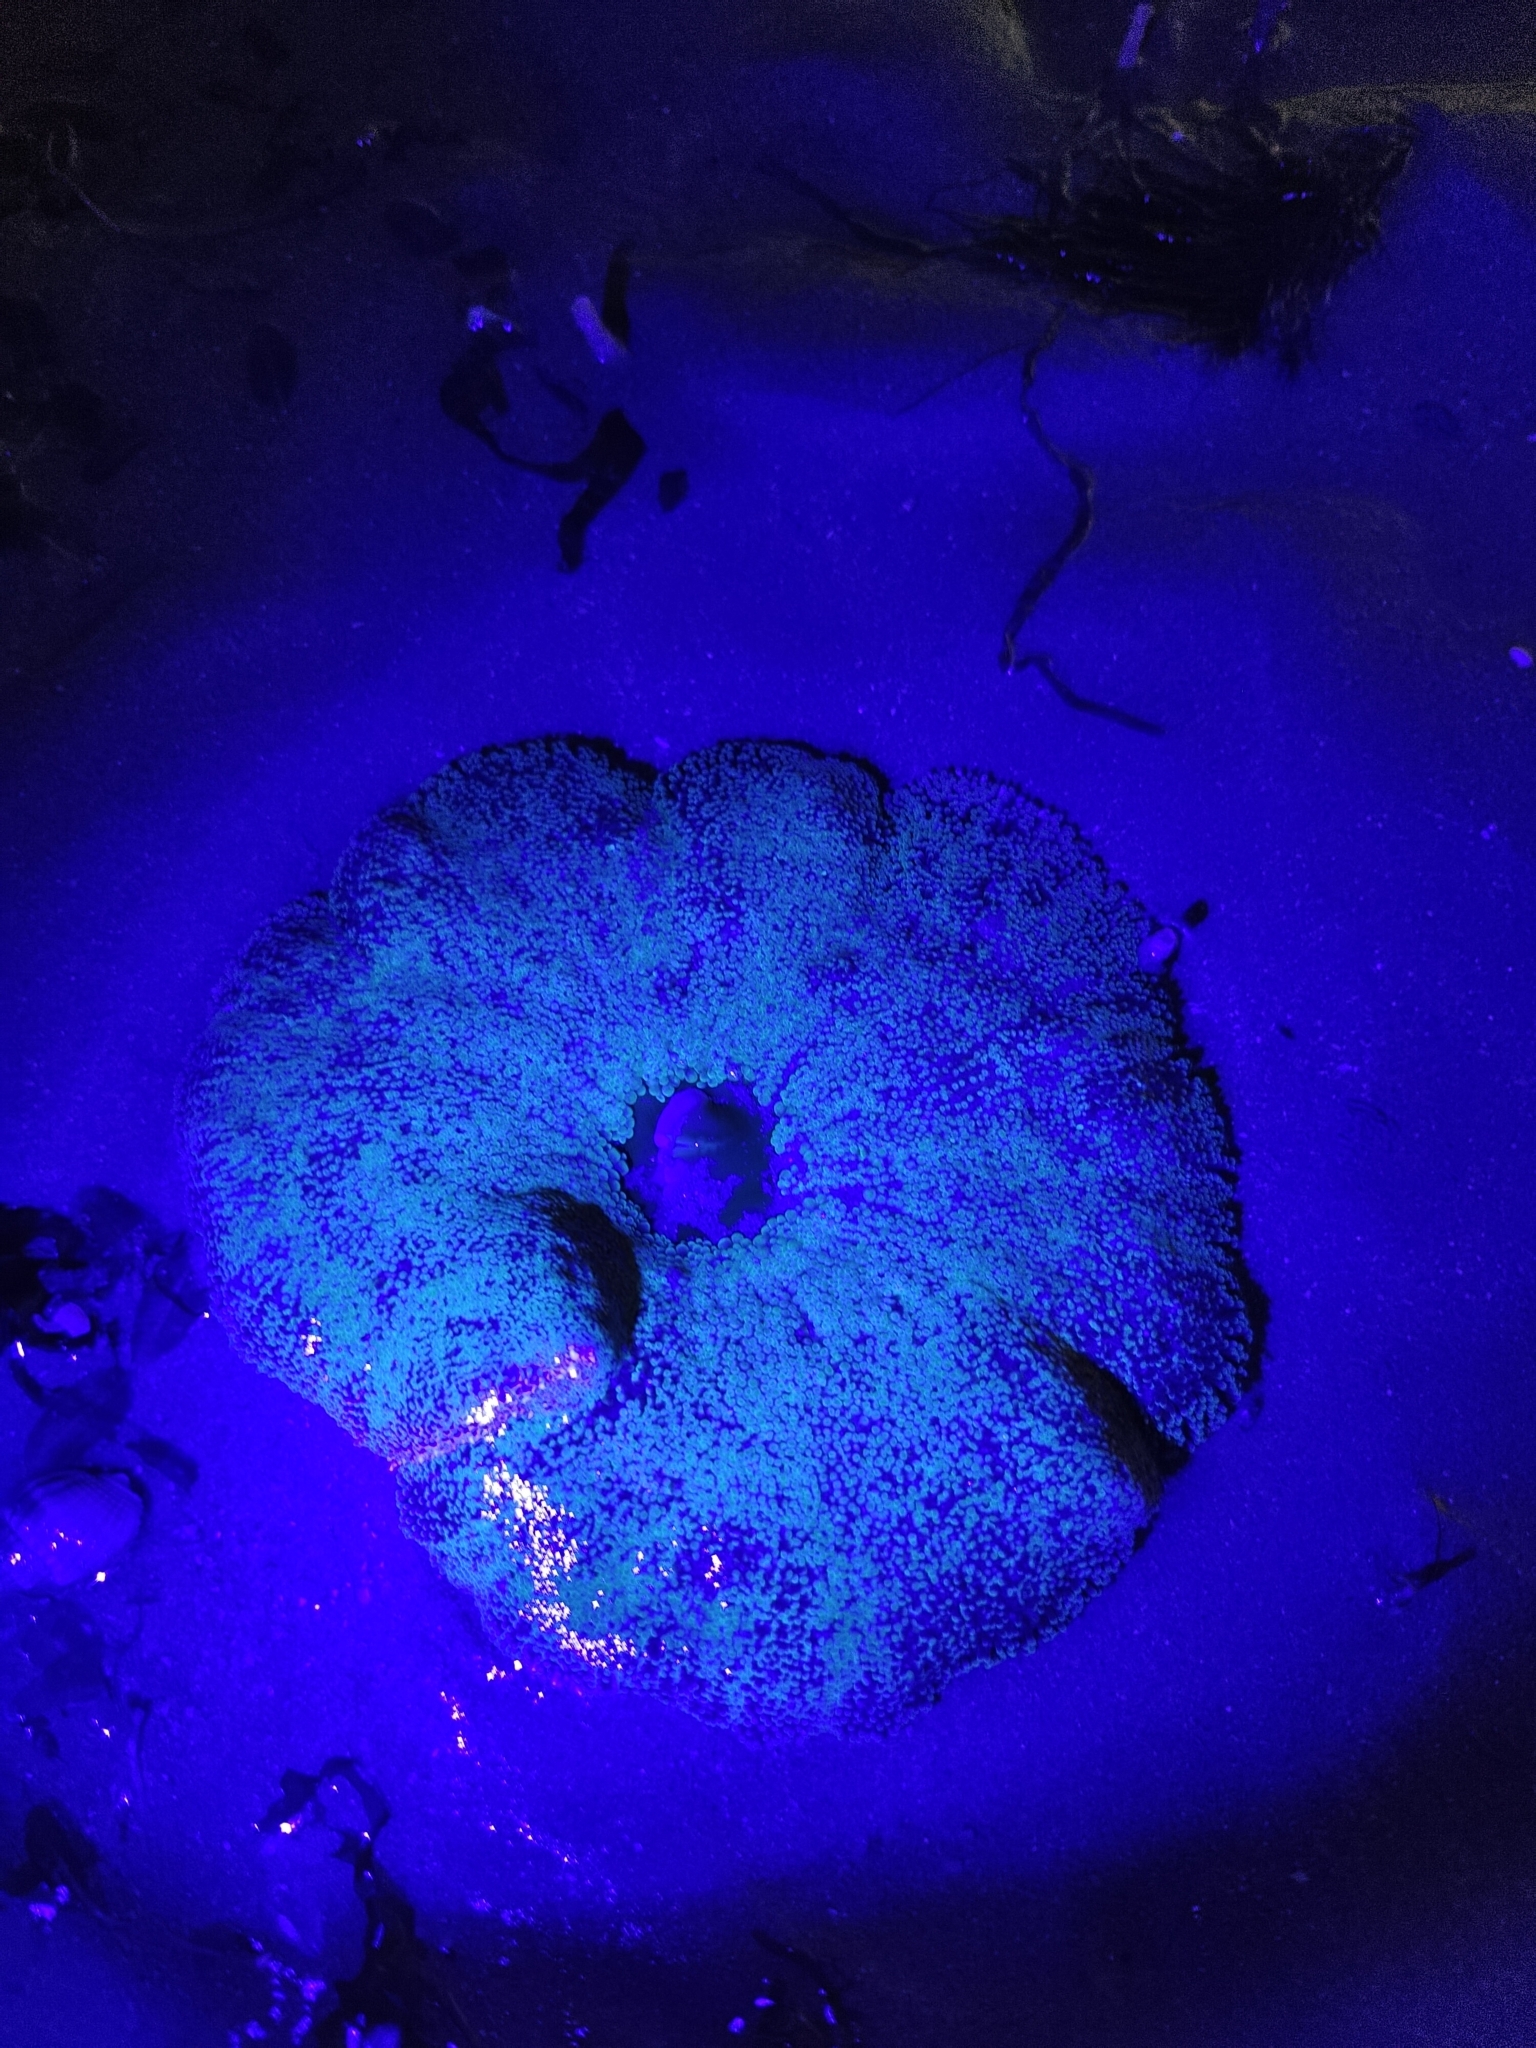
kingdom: Animalia
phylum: Cnidaria
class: Anthozoa
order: Actiniaria
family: Stichodactylidae
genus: Stichodactyla
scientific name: Stichodactyla haddoni
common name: Haddon's sea anemone
